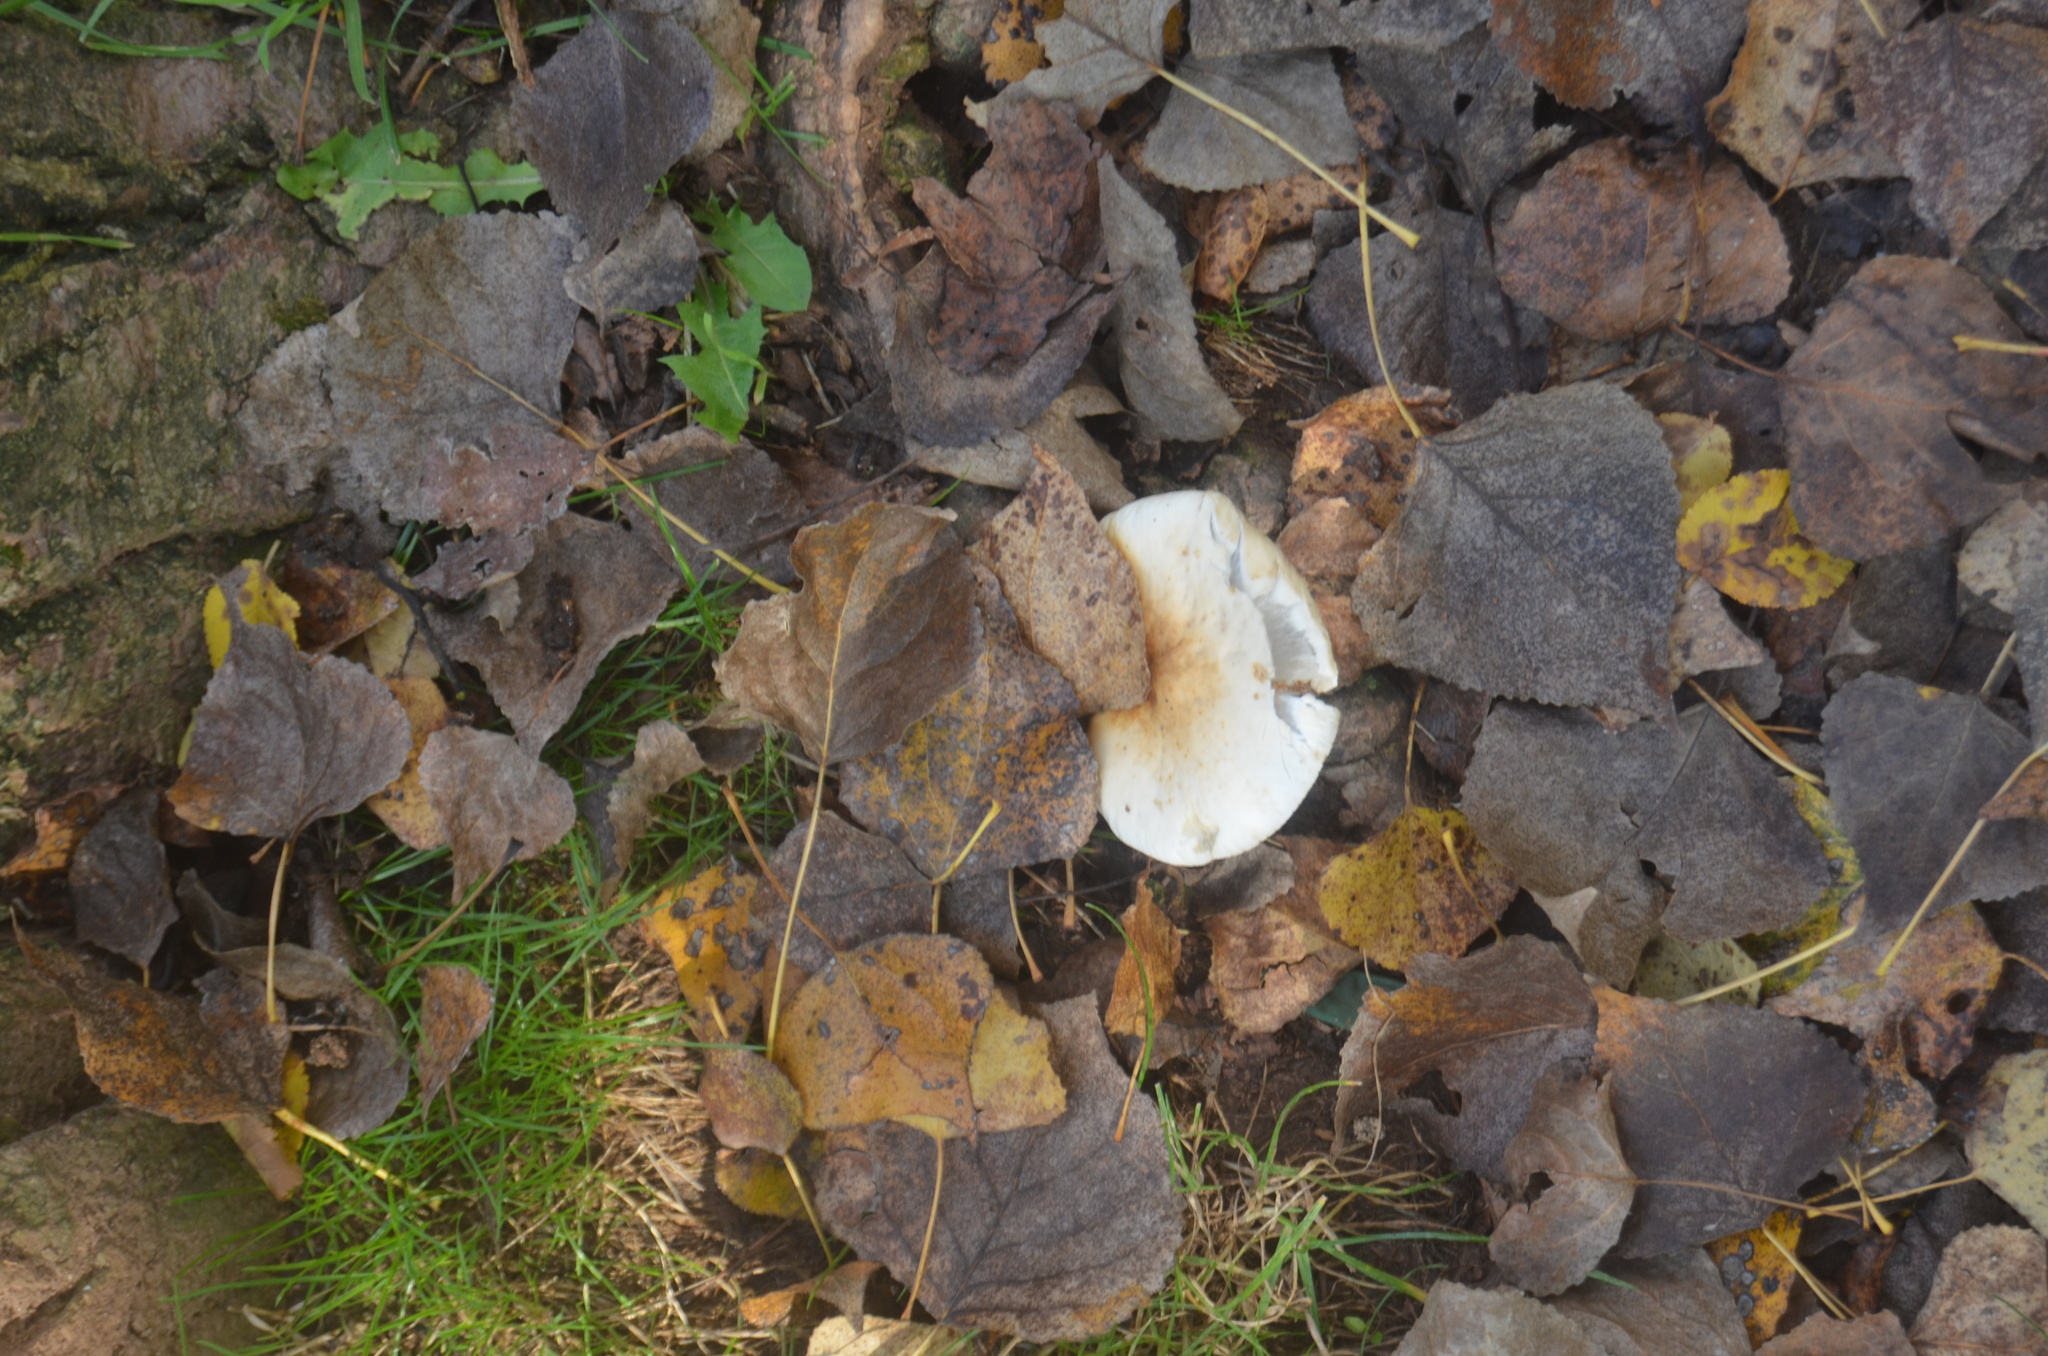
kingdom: Fungi
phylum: Basidiomycota
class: Agaricomycetes
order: Agaricales
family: Tubariaceae
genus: Cyclocybe
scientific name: Cyclocybe cylindracea
